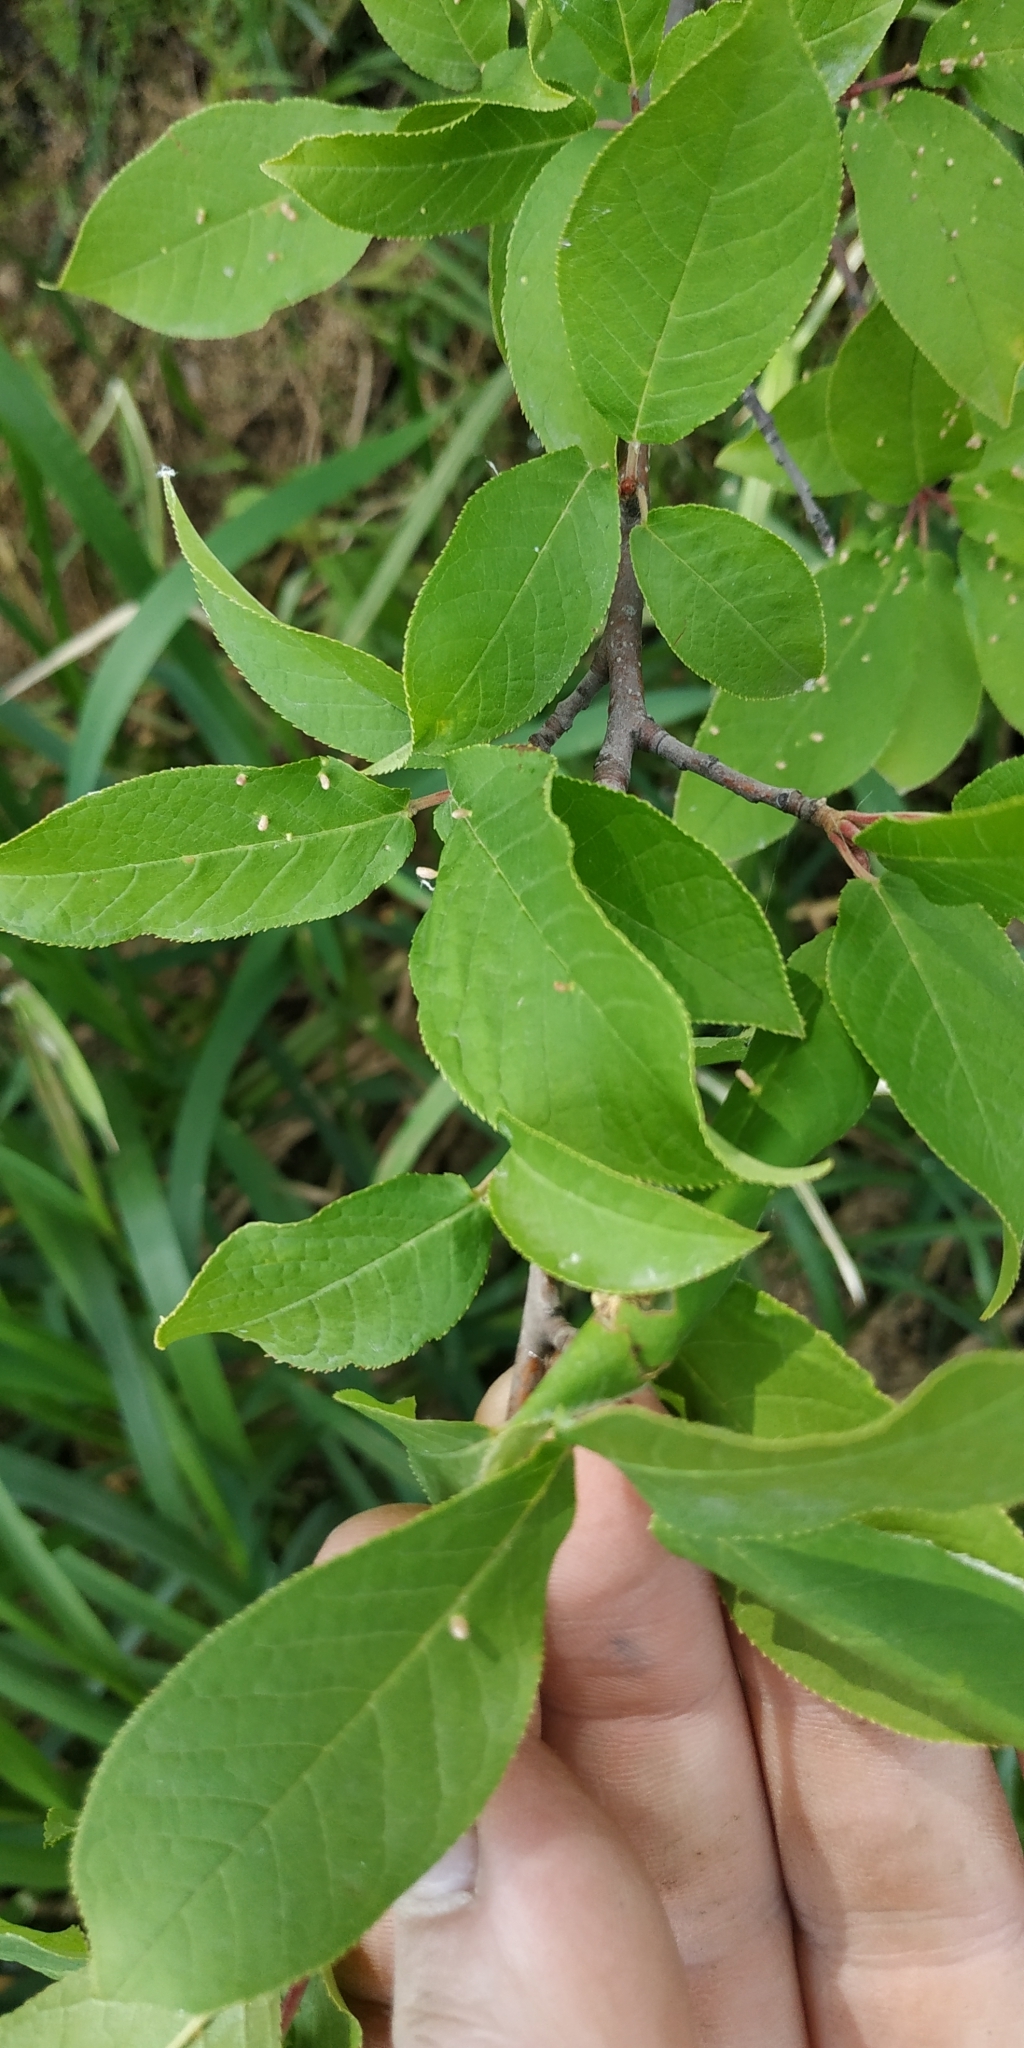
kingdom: Plantae
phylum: Tracheophyta
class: Magnoliopsida
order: Rosales
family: Rosaceae
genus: Prunus
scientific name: Prunus padus
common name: Bird cherry
